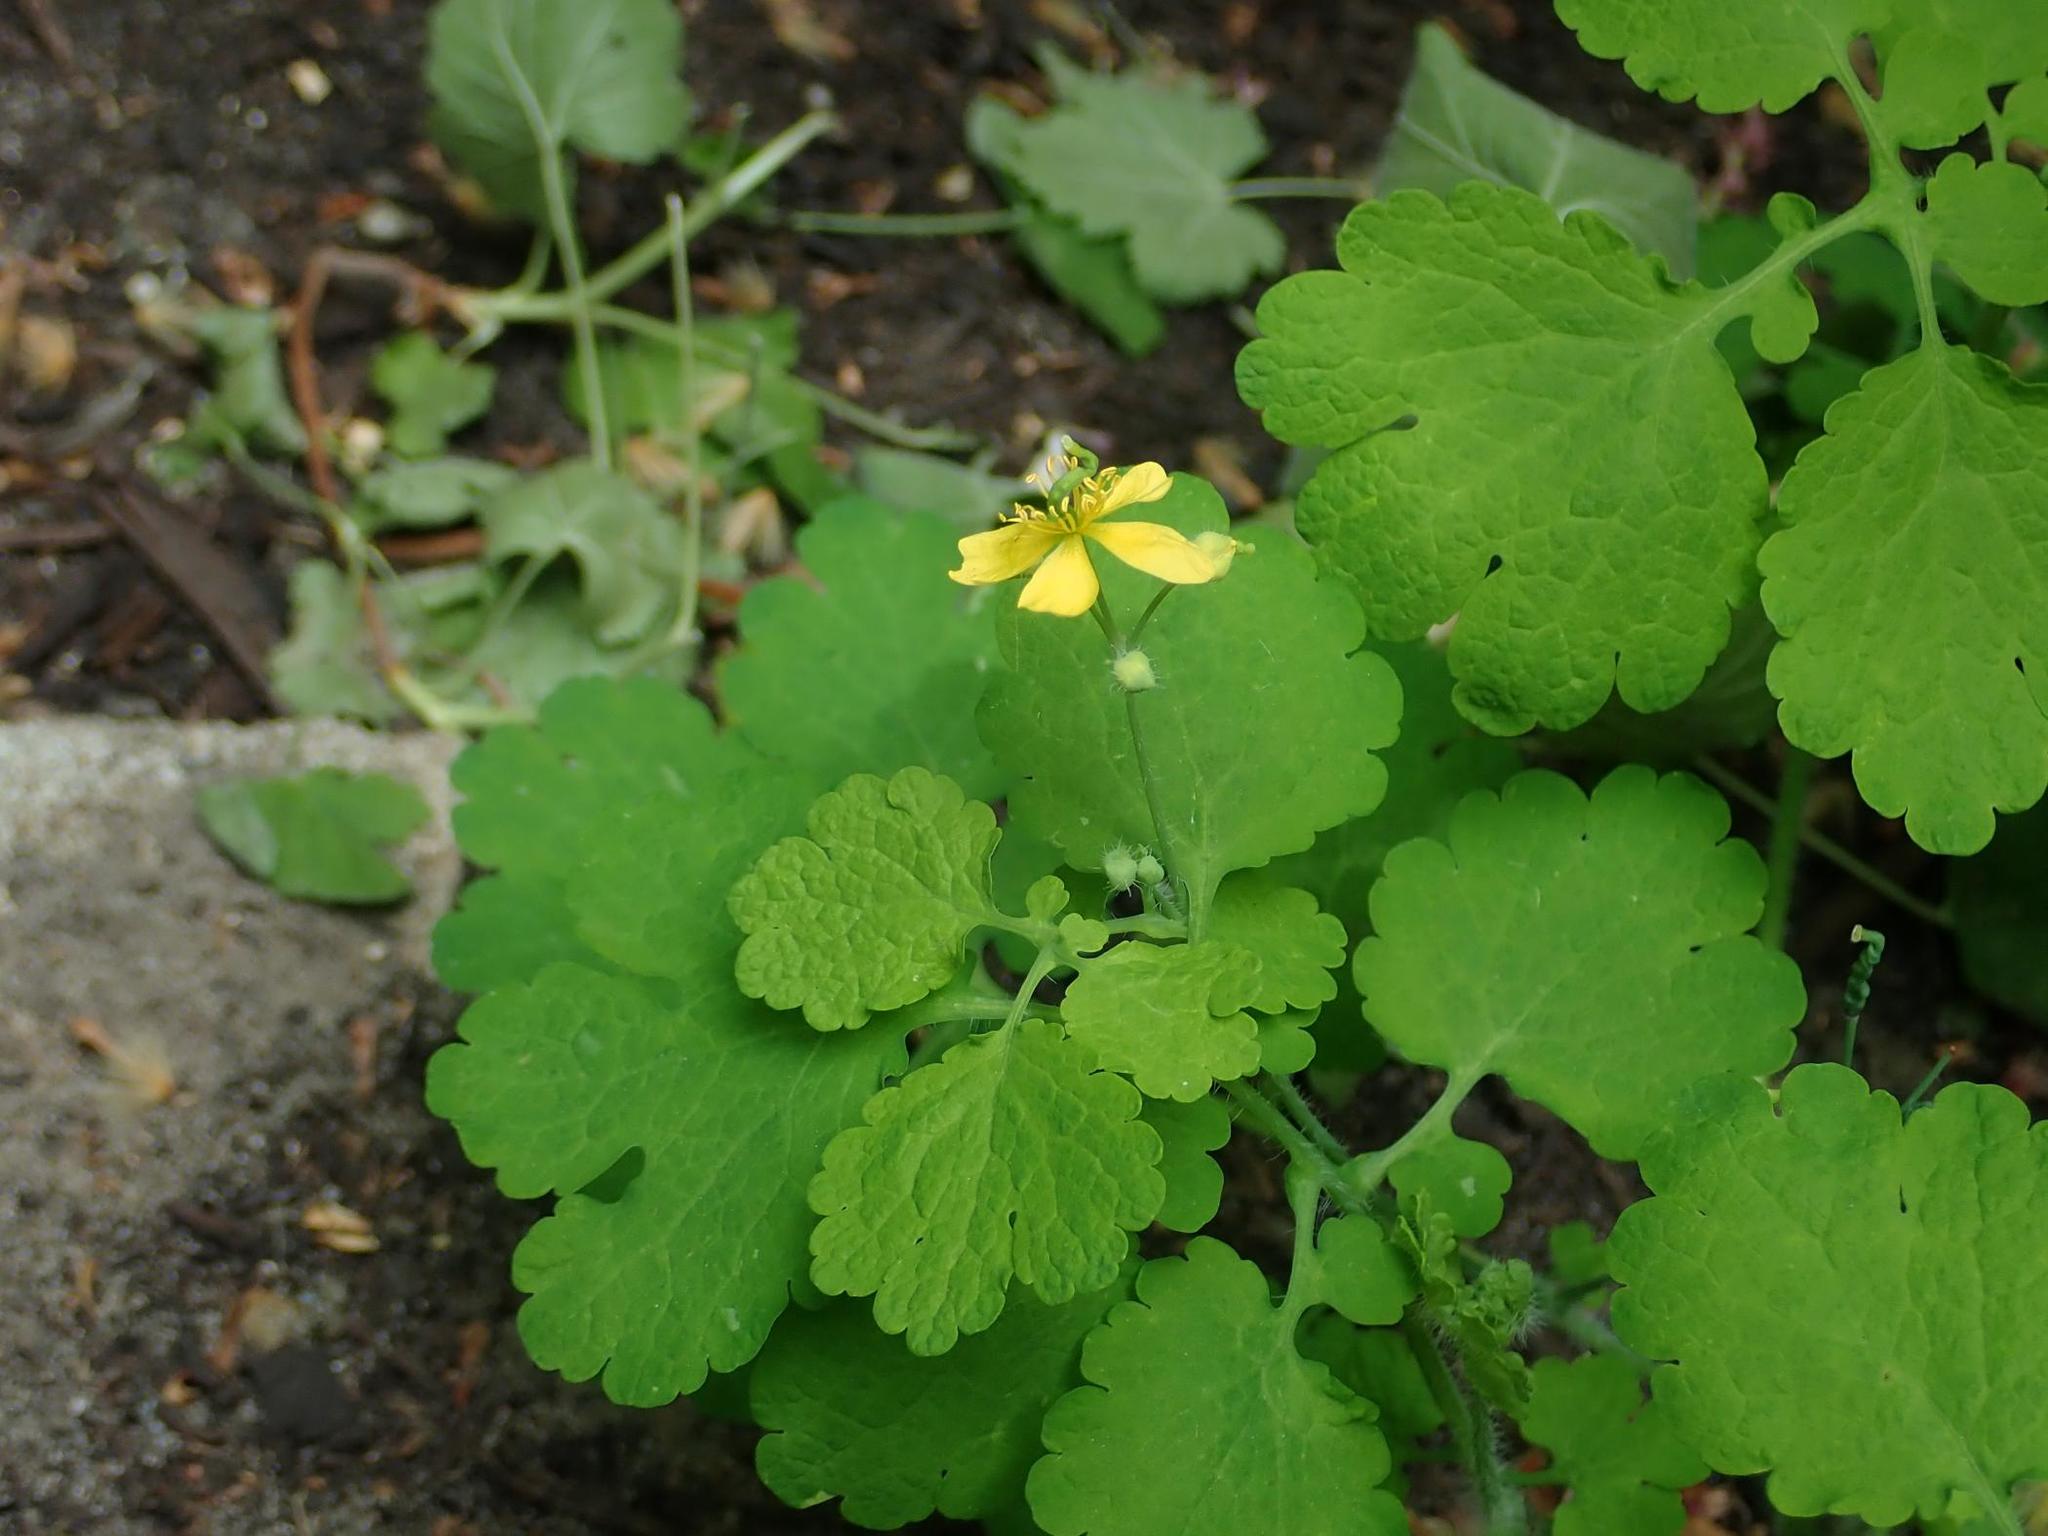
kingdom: Plantae
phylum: Tracheophyta
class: Magnoliopsida
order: Ranunculales
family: Papaveraceae
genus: Chelidonium
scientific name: Chelidonium majus
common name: Greater celandine
